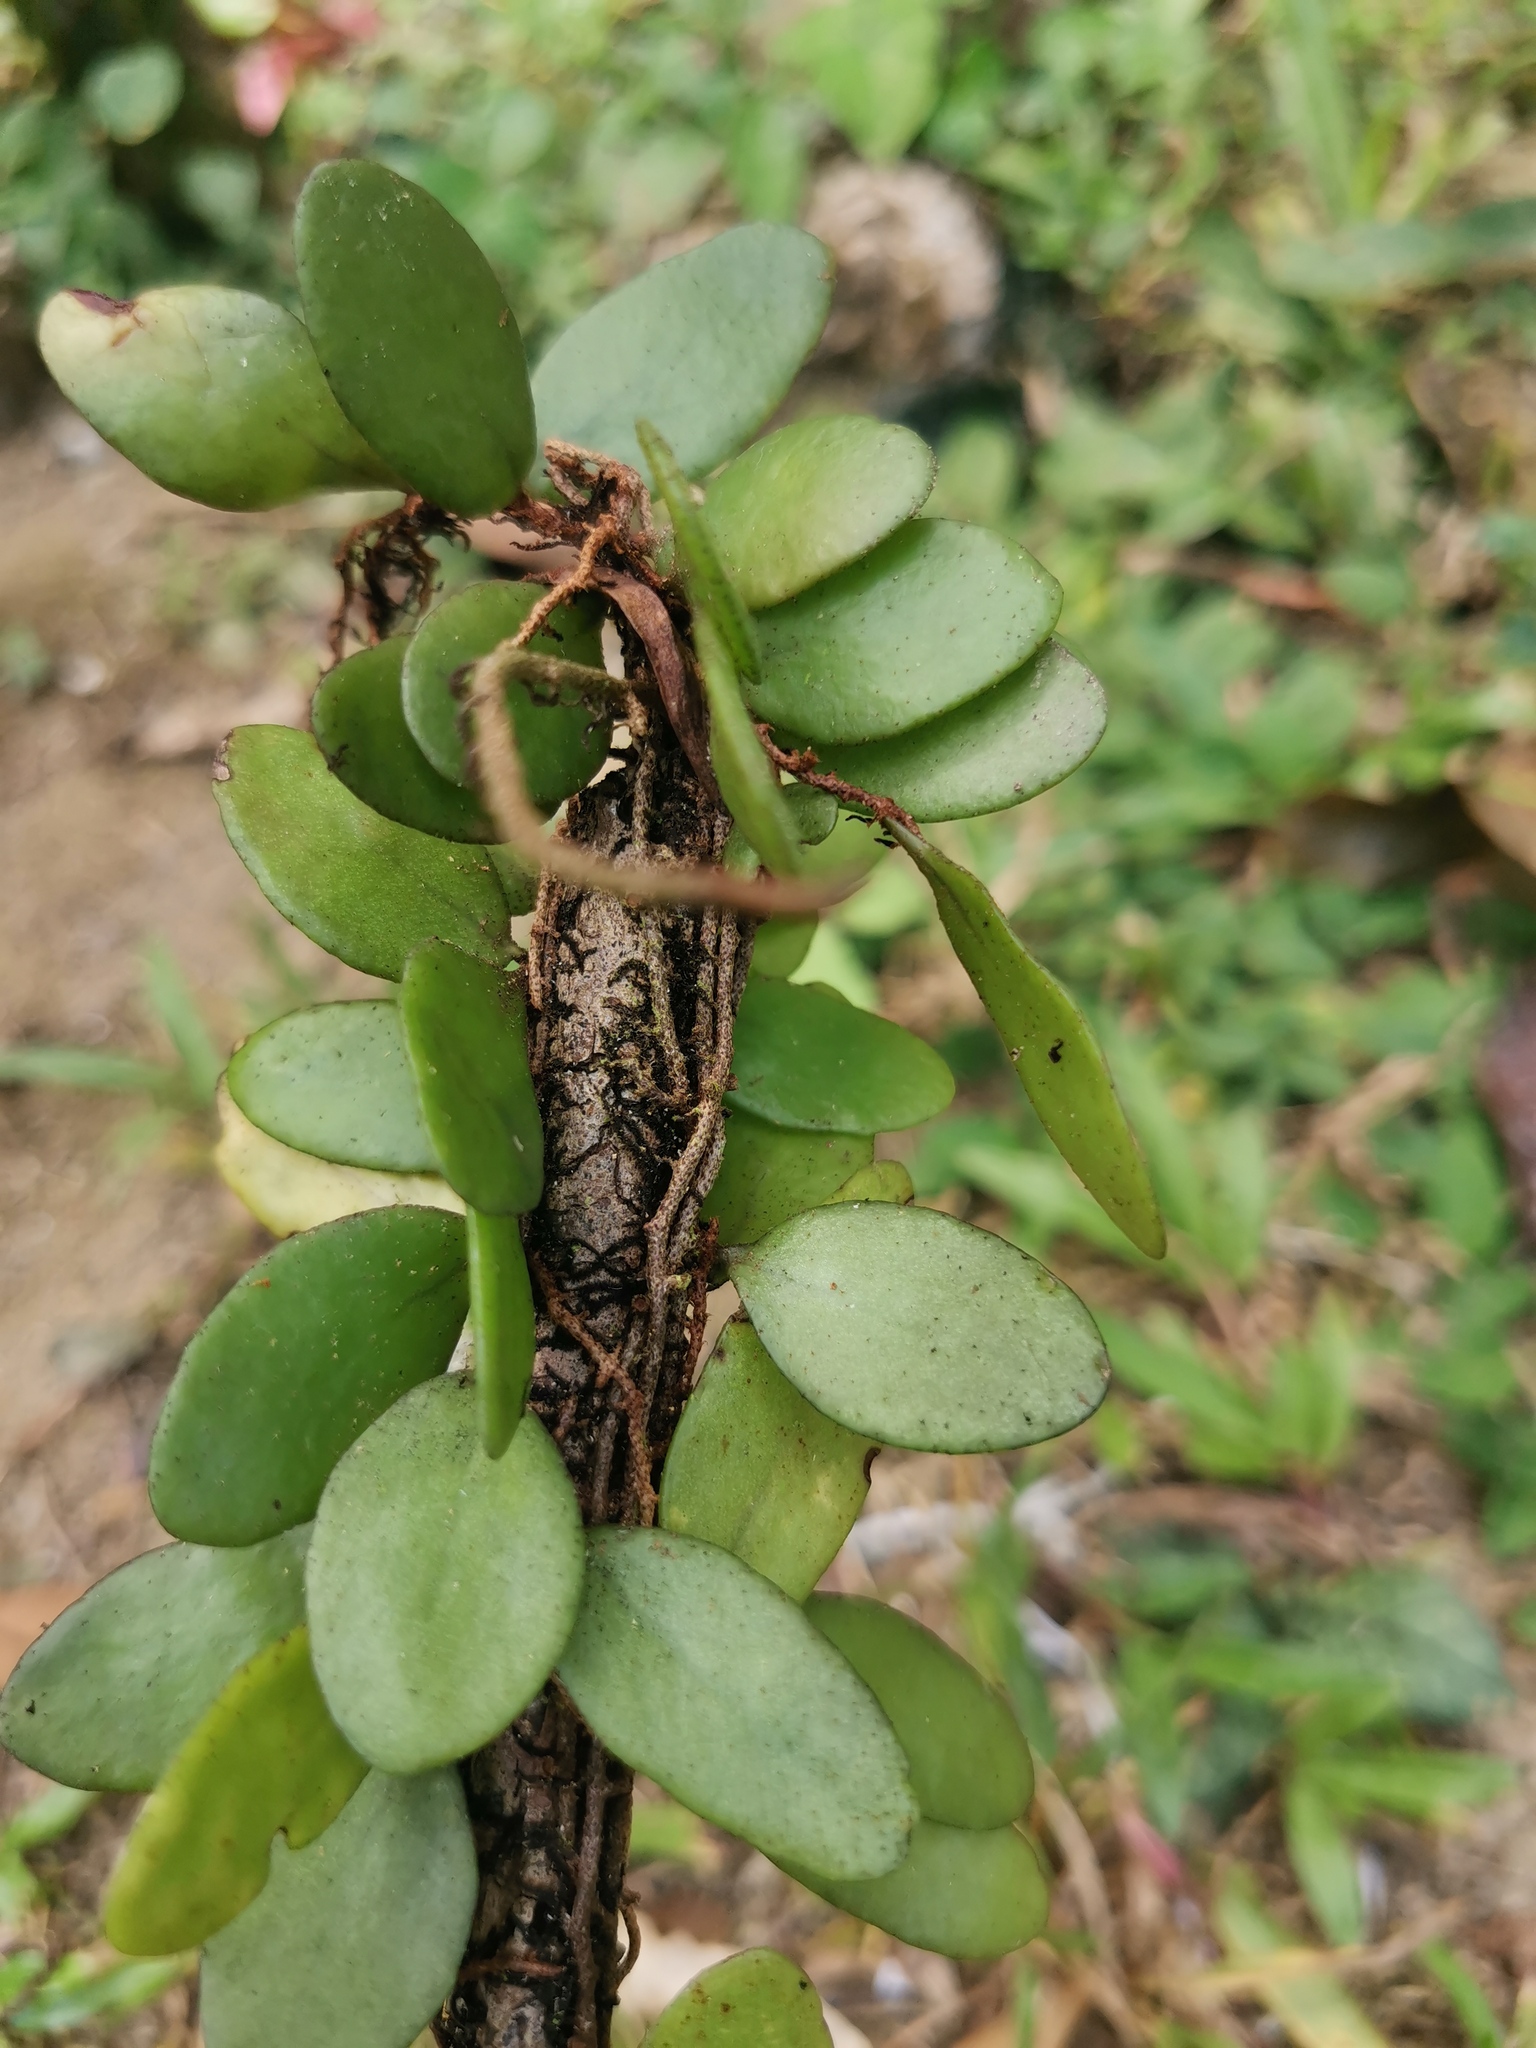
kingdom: Plantae
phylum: Tracheophyta
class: Polypodiopsida
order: Polypodiales
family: Polypodiaceae
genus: Pyrrosia
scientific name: Pyrrosia piloselloides
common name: Epiphytic creeping fern
